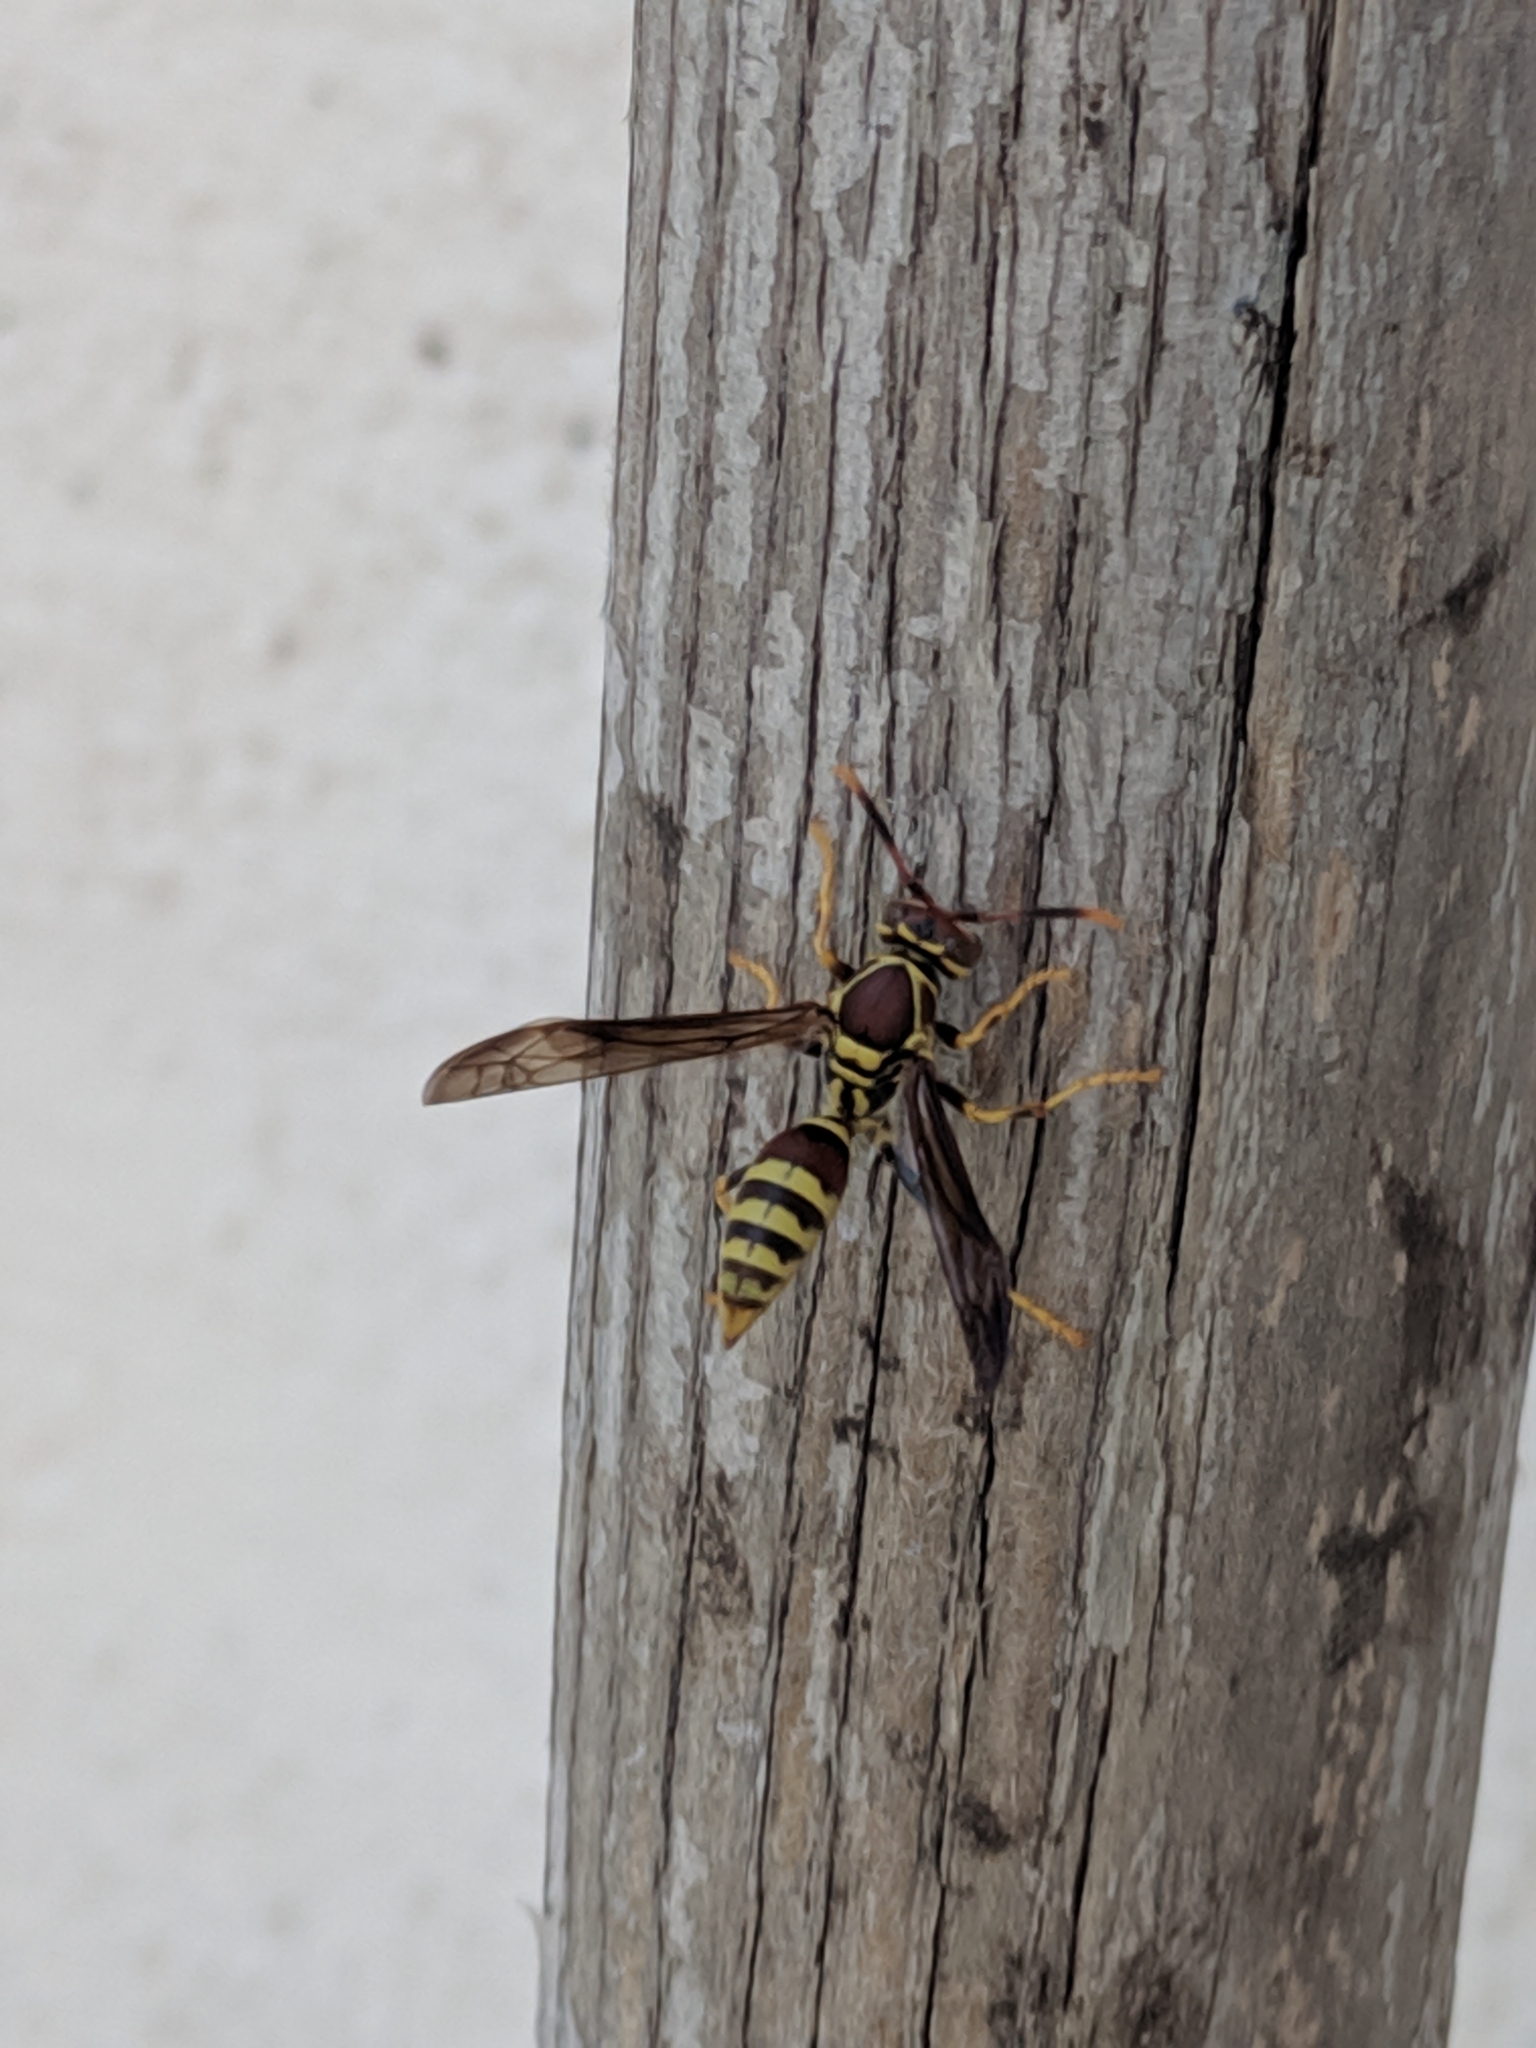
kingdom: Animalia
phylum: Arthropoda
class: Insecta
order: Hymenoptera
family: Eumenidae
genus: Polistes
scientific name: Polistes exclamans
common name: Paper wasp
